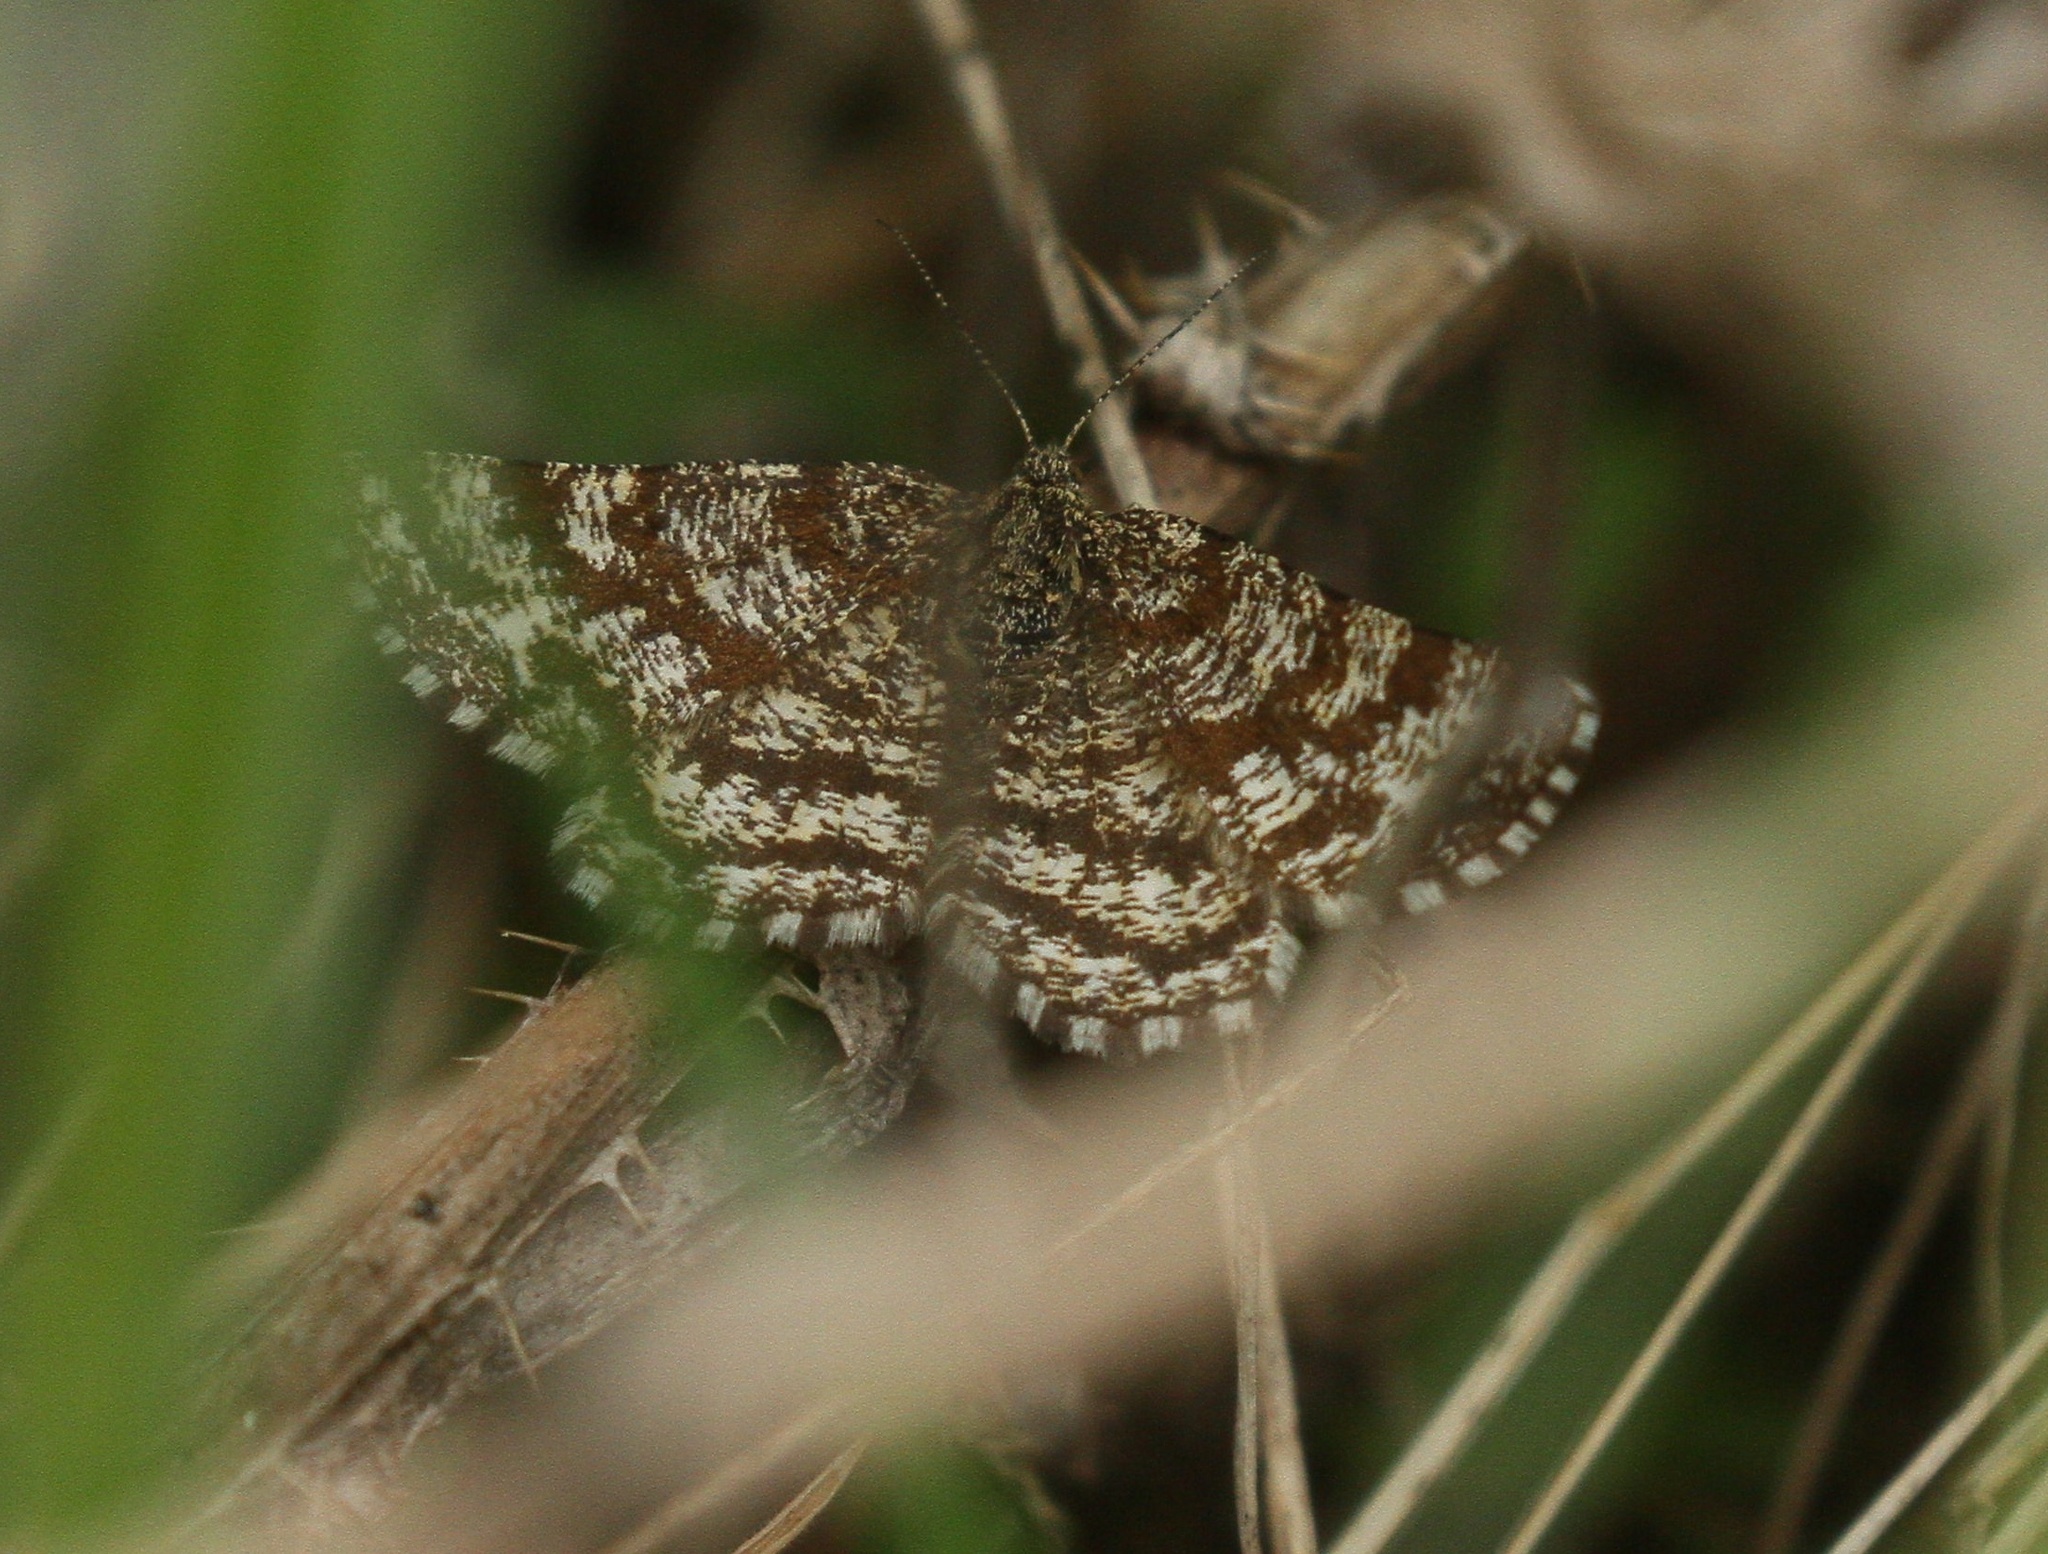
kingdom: Animalia
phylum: Arthropoda
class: Insecta
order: Lepidoptera
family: Geometridae
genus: Ematurga
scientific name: Ematurga atomaria
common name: Common heath
